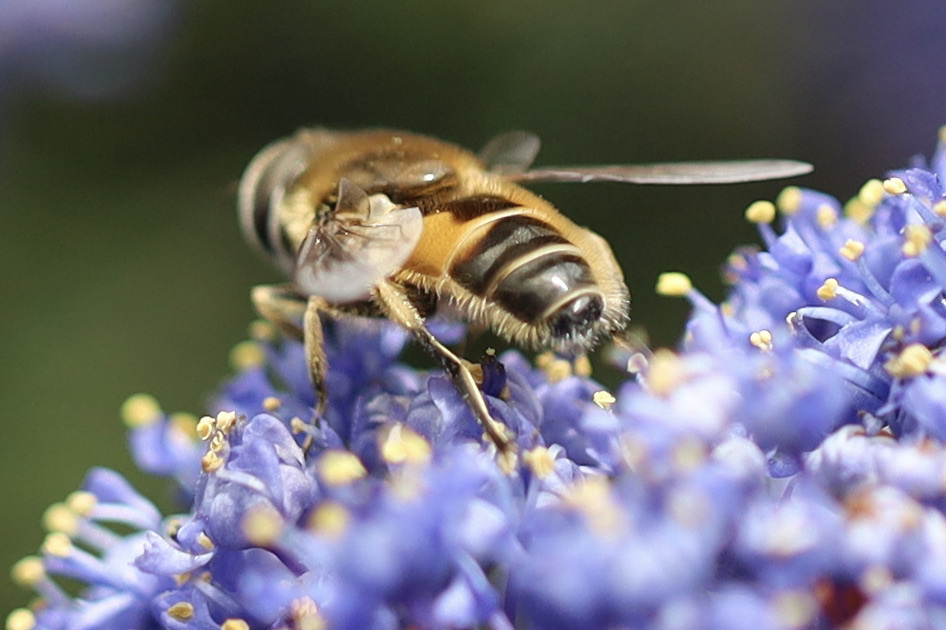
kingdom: Animalia
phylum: Arthropoda
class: Insecta
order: Diptera
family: Syrphidae
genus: Eristalis
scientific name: Eristalis arbustorum
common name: Hover fly
